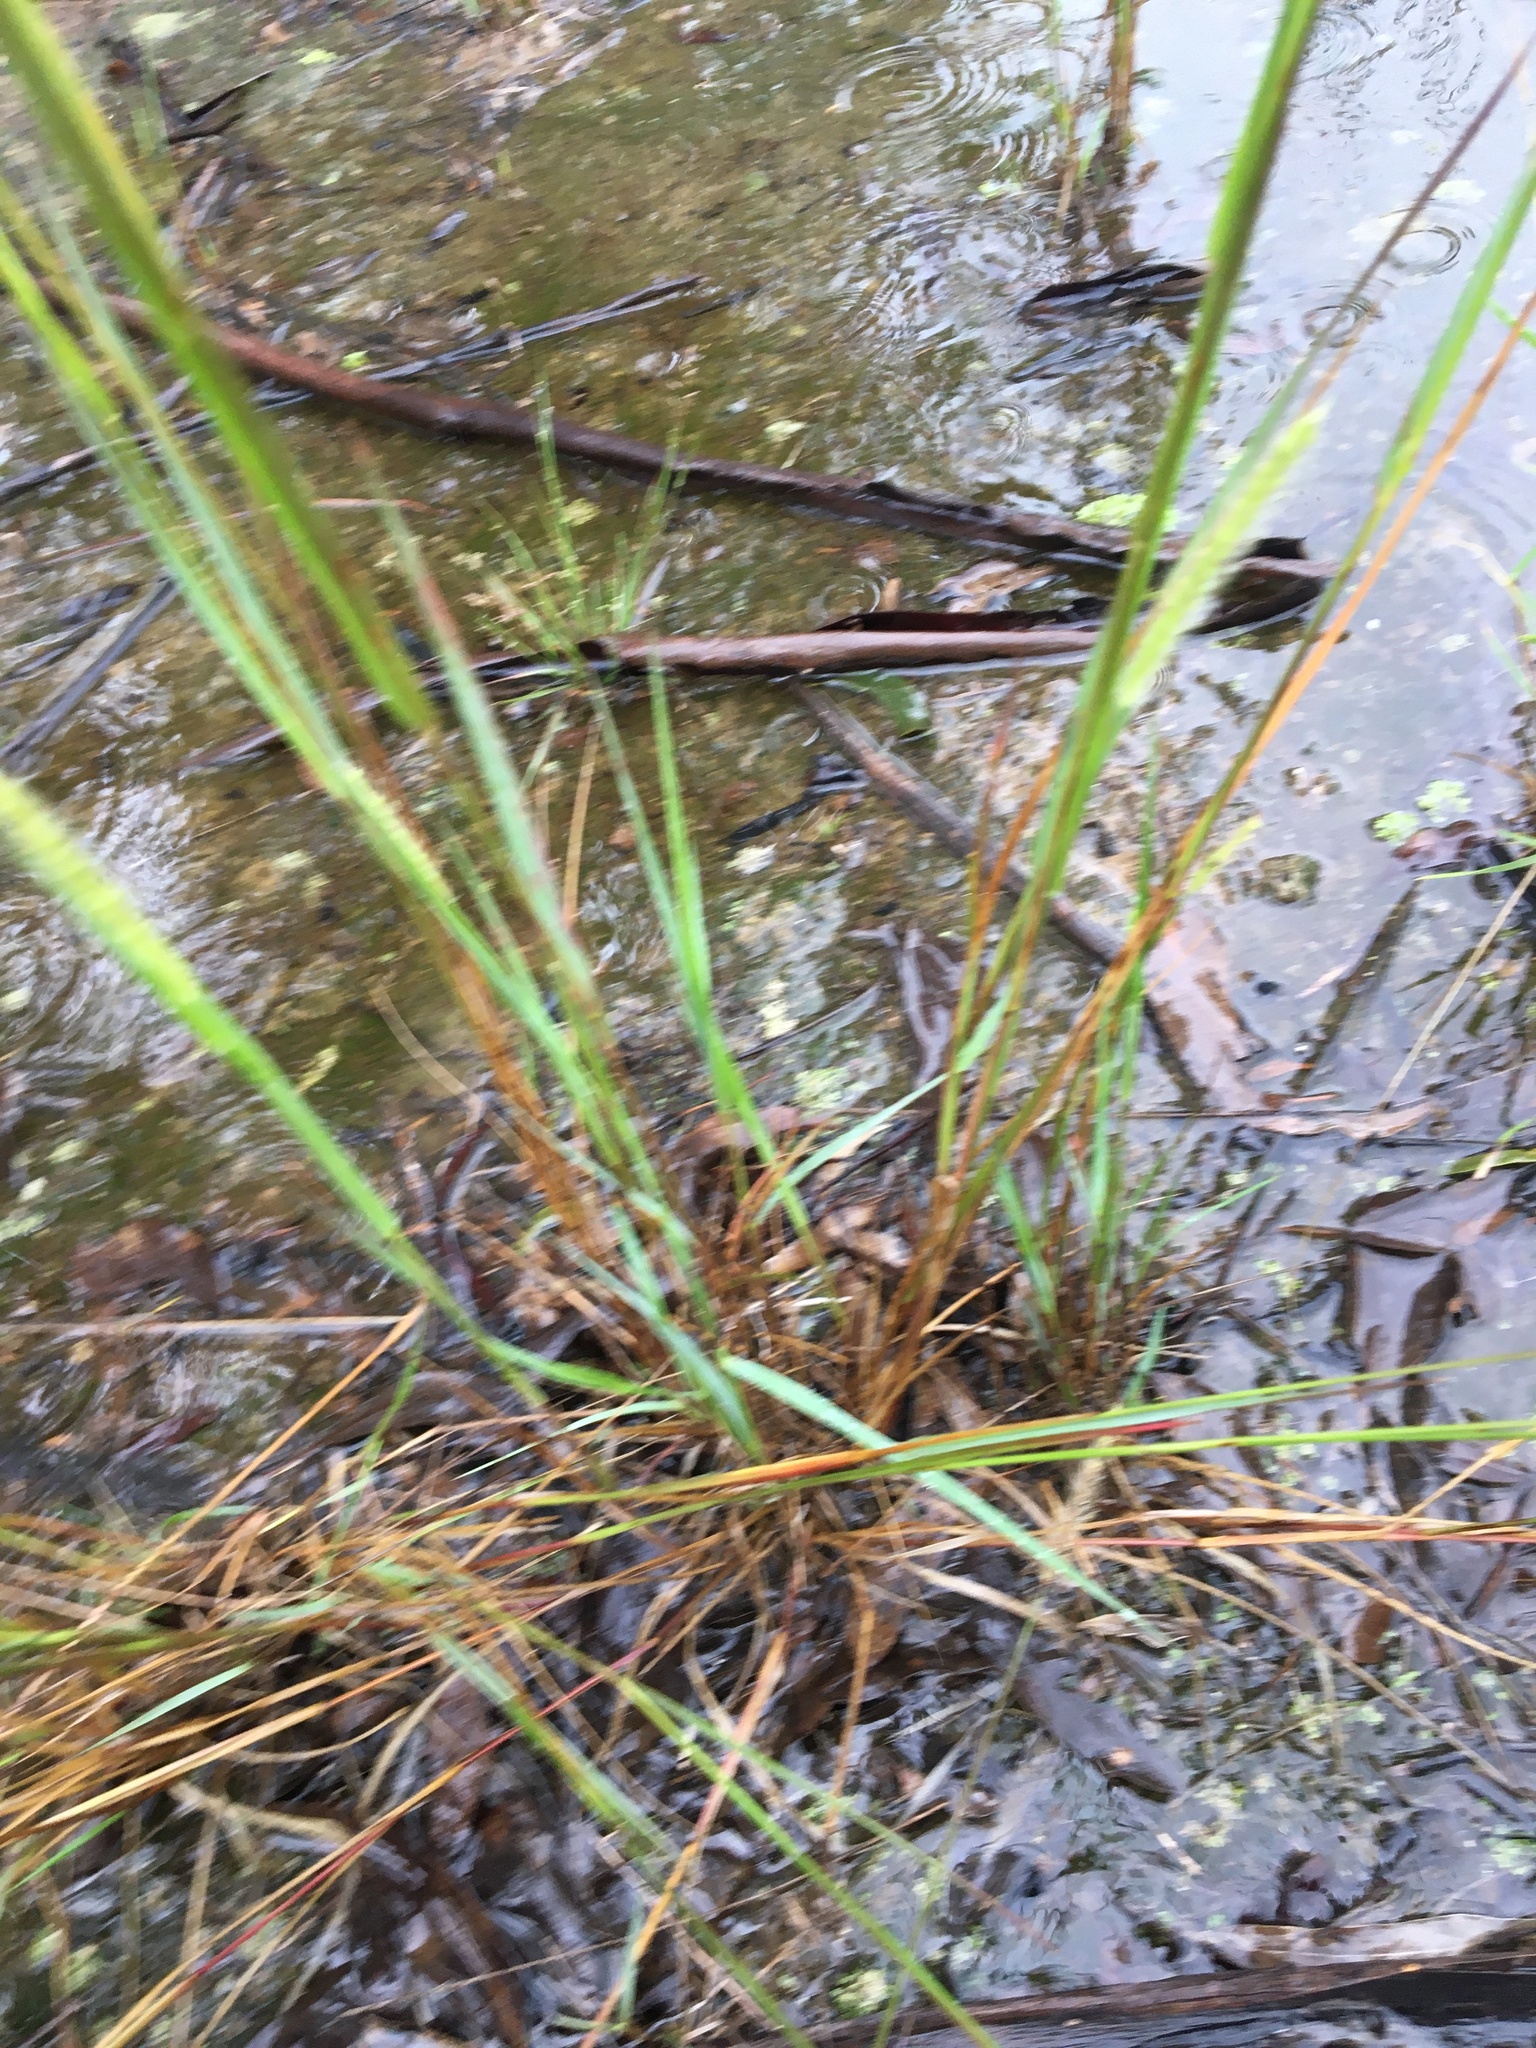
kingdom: Plantae
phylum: Tracheophyta
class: Liliopsida
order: Poales
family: Poaceae
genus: Setaria
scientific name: Setaria pumila
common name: Yellow bristle-grass
